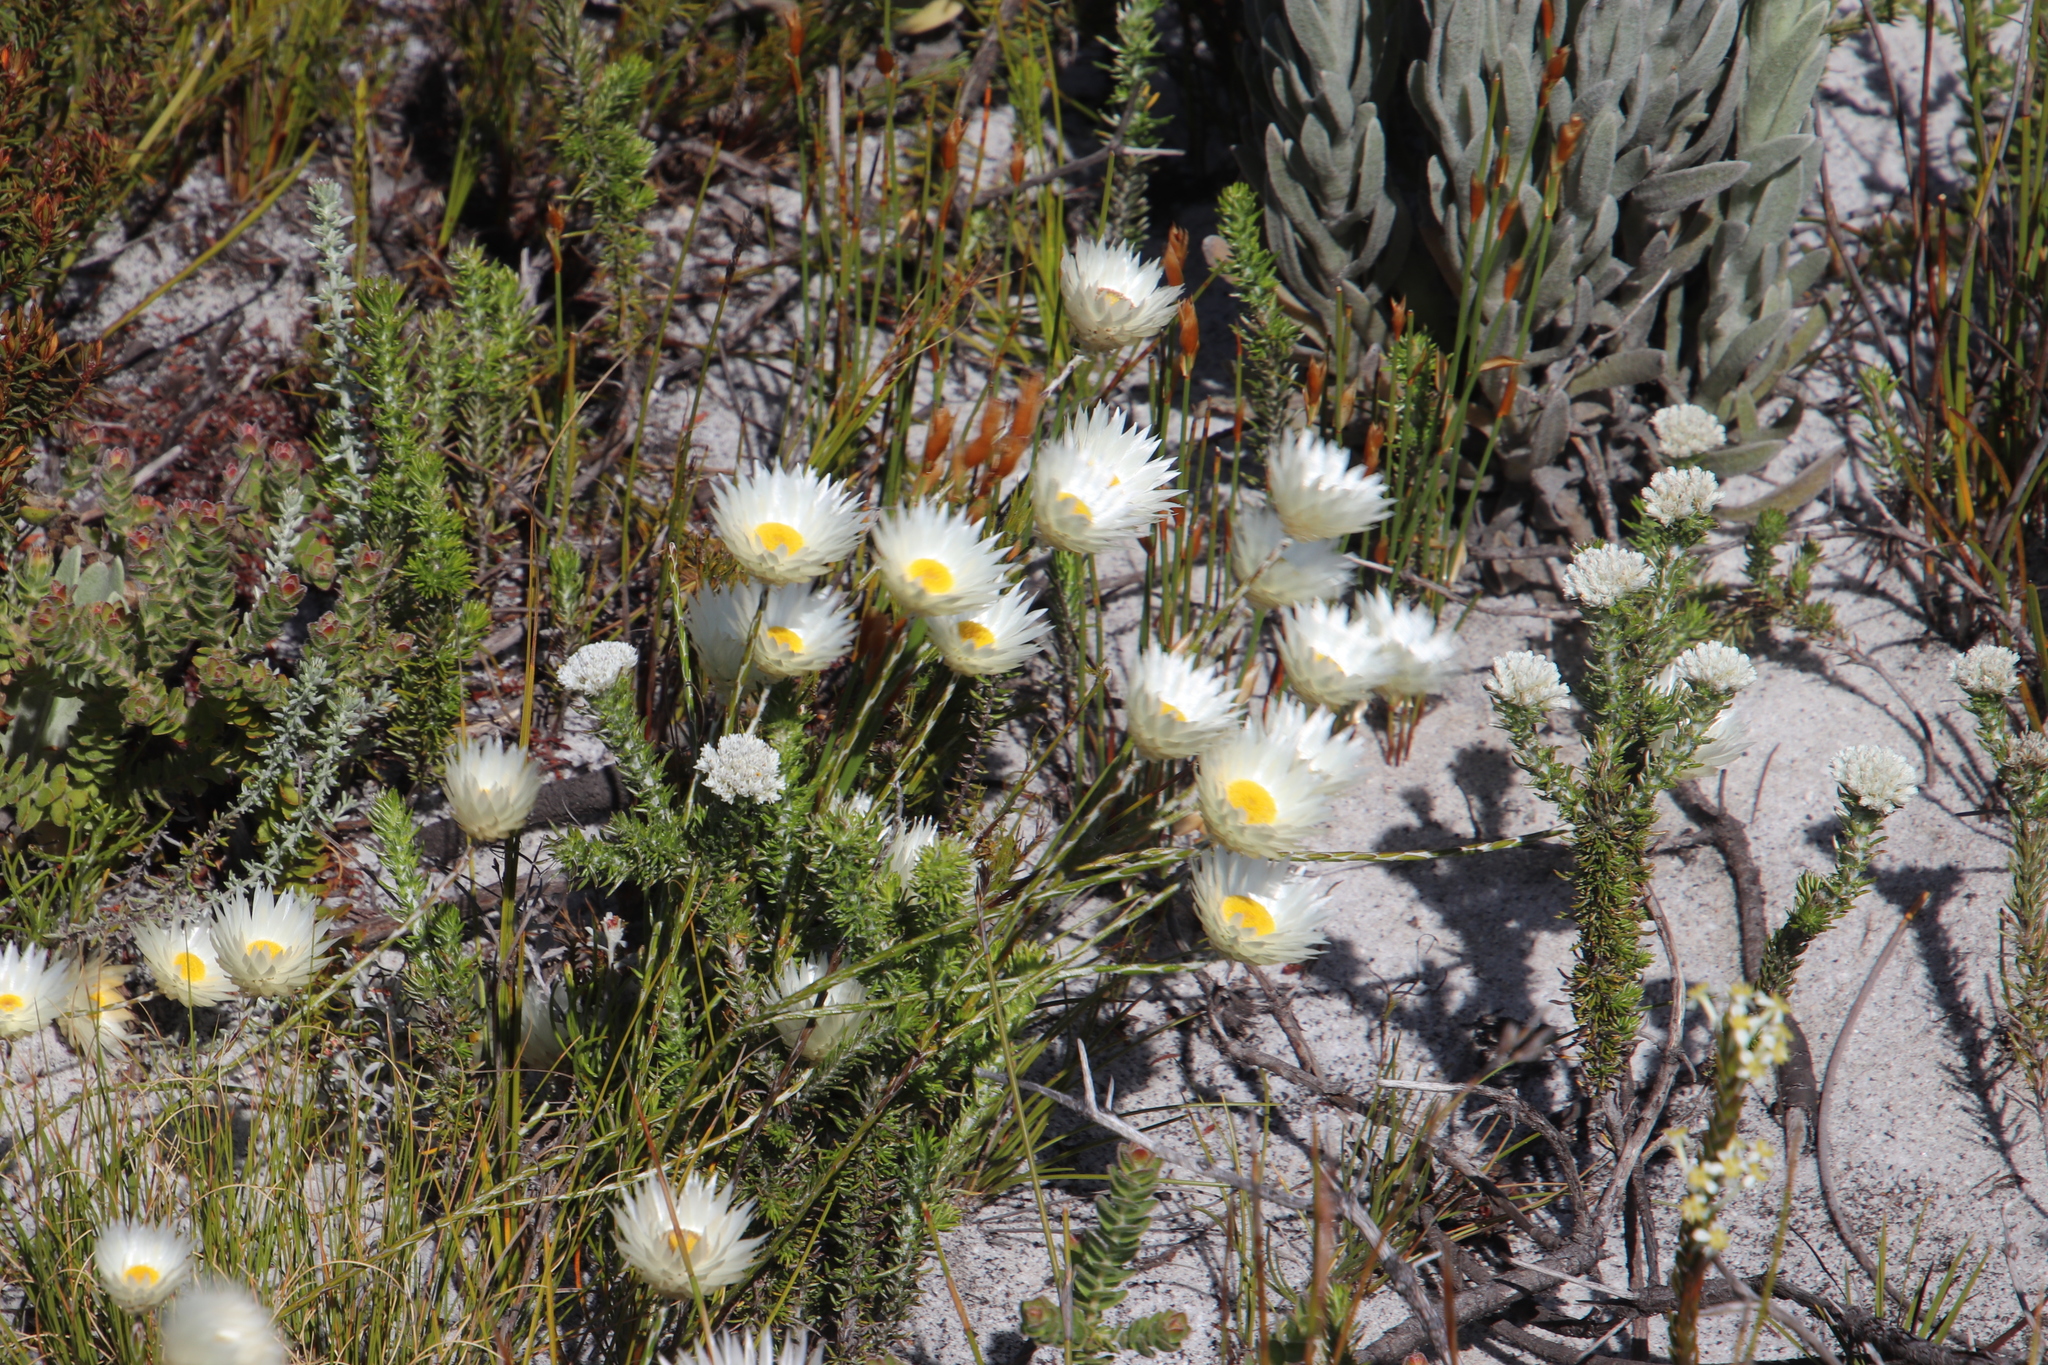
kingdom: Plantae
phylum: Tracheophyta
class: Magnoliopsida
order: Asterales
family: Asteraceae
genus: Edmondia
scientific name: Edmondia sesamoides
